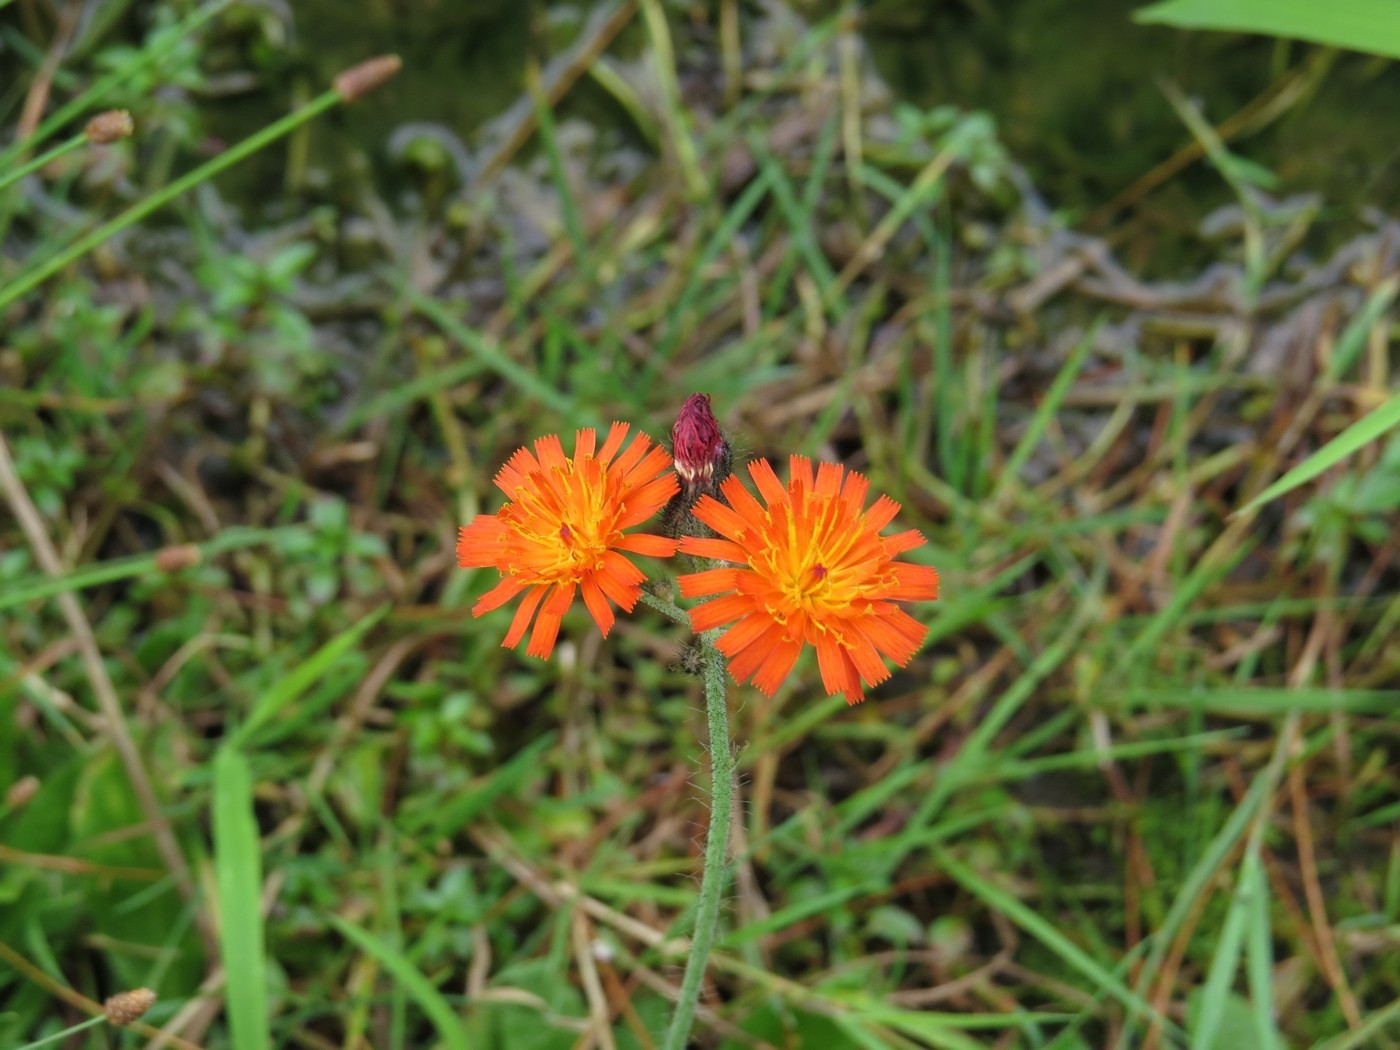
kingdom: Plantae
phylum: Tracheophyta
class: Magnoliopsida
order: Asterales
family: Asteraceae
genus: Pilosella
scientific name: Pilosella aurantiaca
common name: Fox-and-cubs
